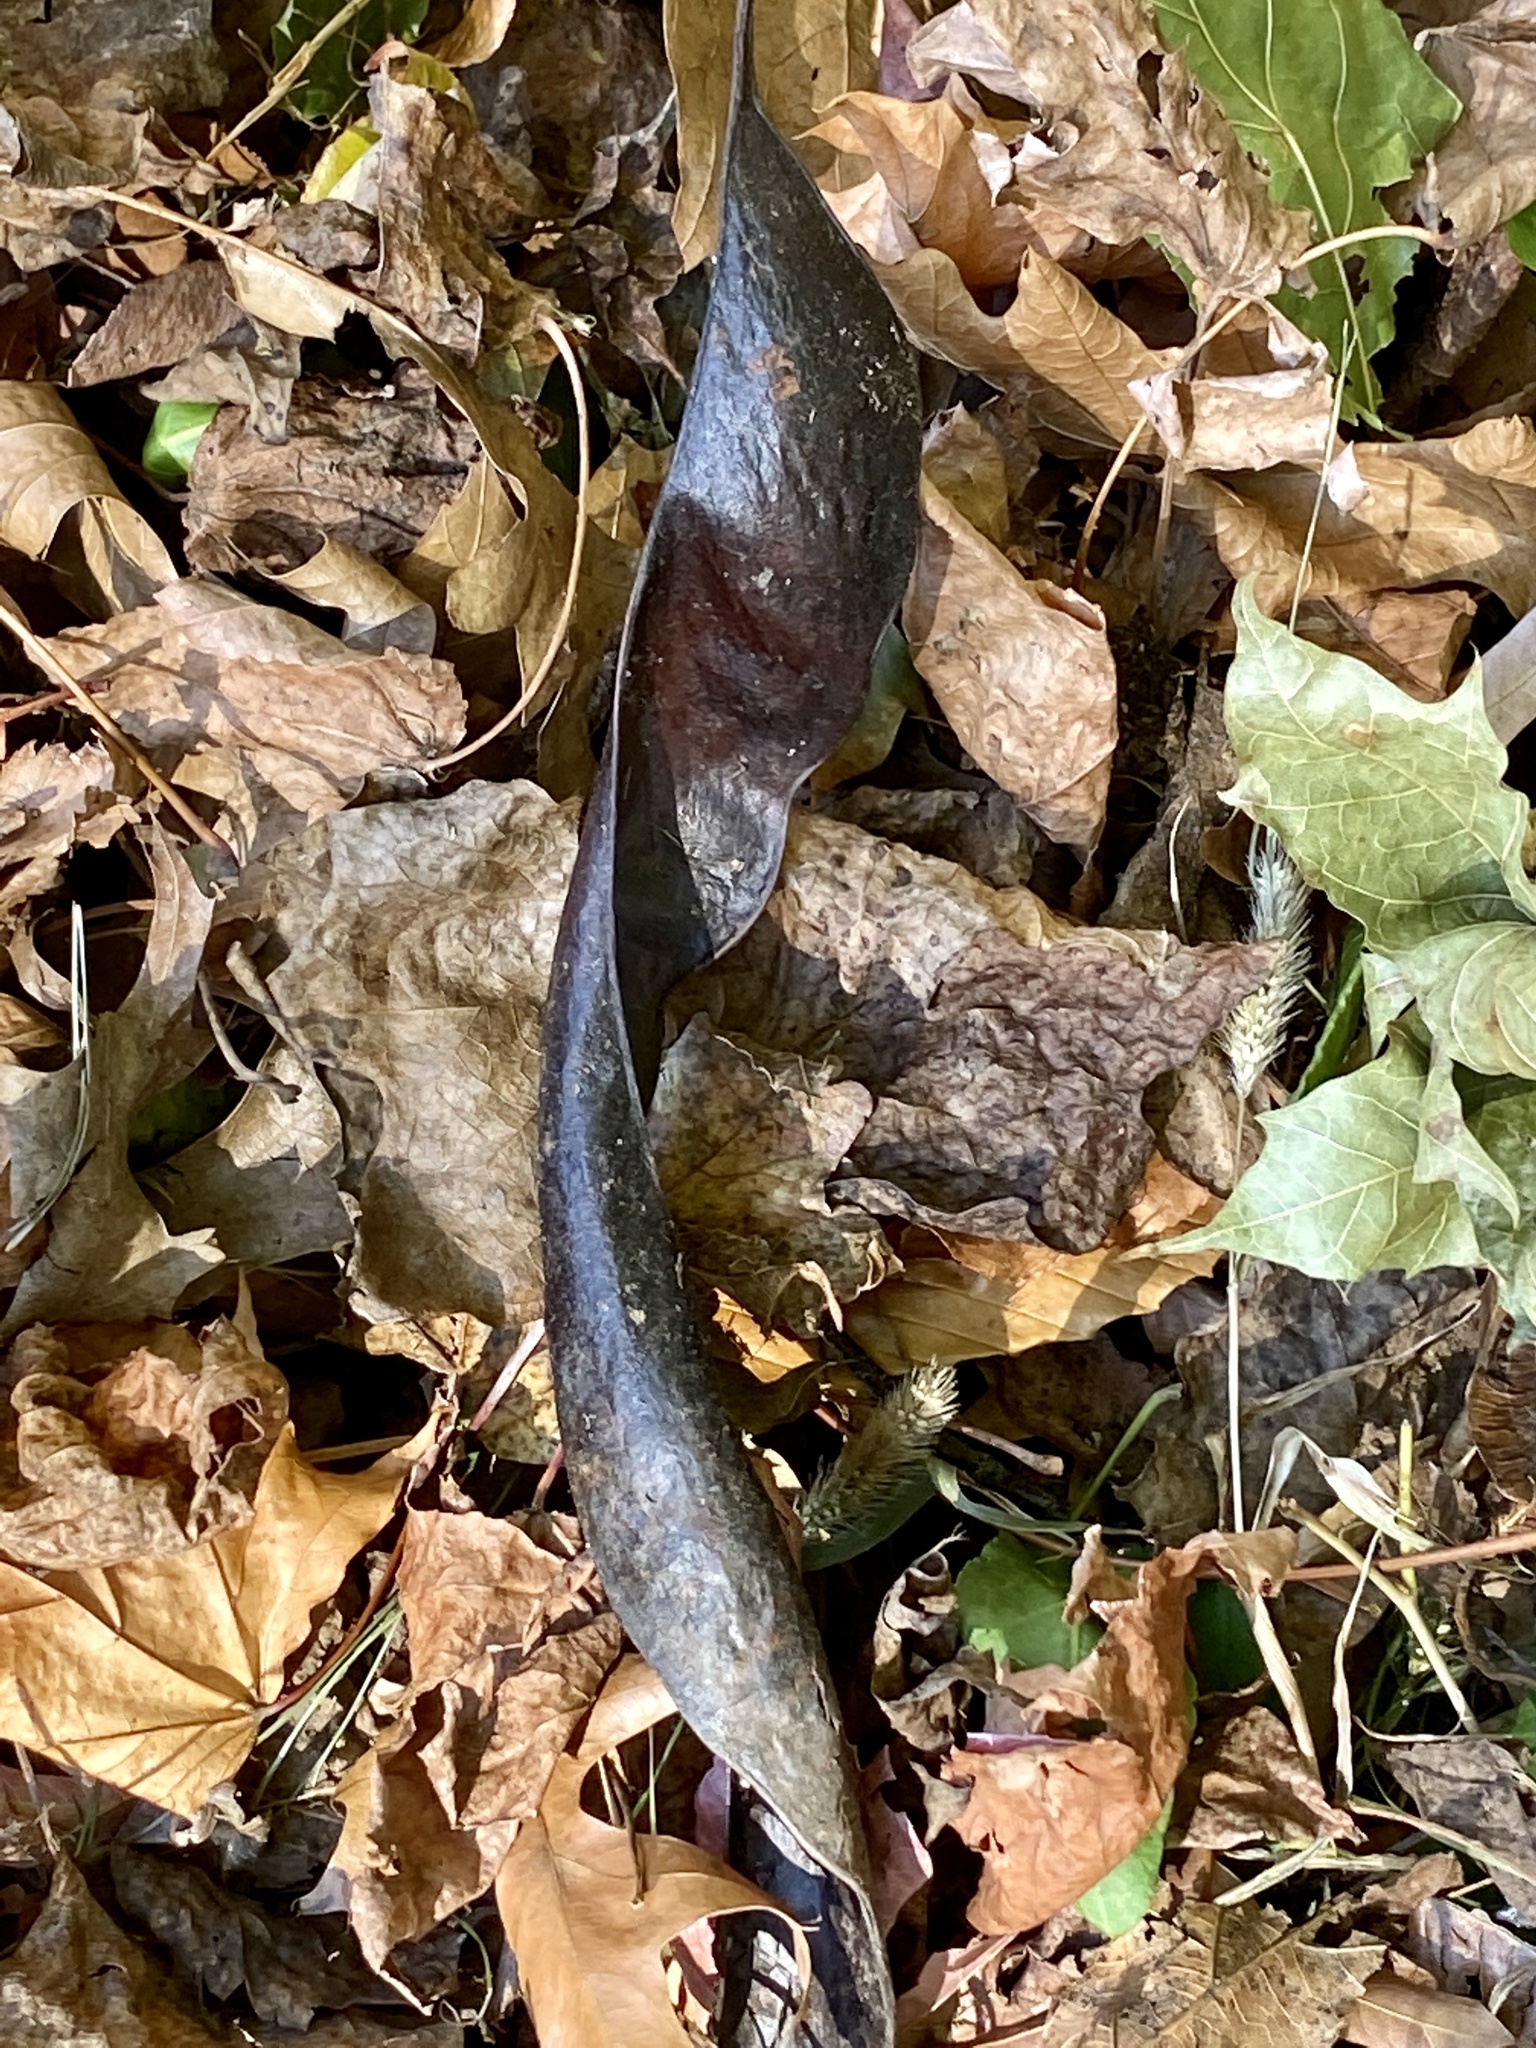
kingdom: Plantae
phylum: Tracheophyta
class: Magnoliopsida
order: Fabales
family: Fabaceae
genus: Gleditsia
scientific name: Gleditsia triacanthos
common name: Common honeylocust
